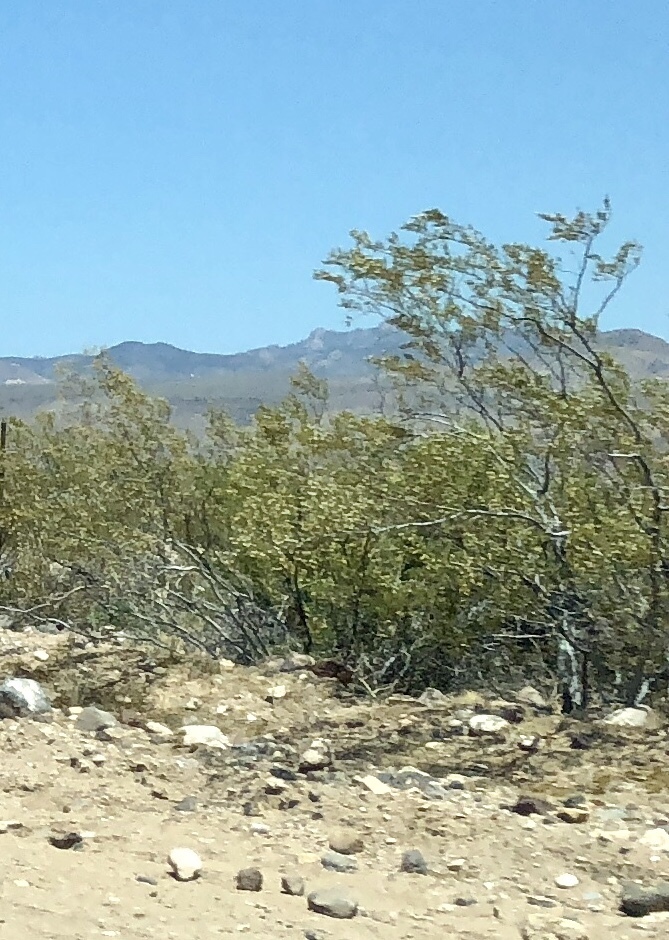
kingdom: Plantae
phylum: Tracheophyta
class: Magnoliopsida
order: Zygophyllales
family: Zygophyllaceae
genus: Larrea
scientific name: Larrea tridentata
